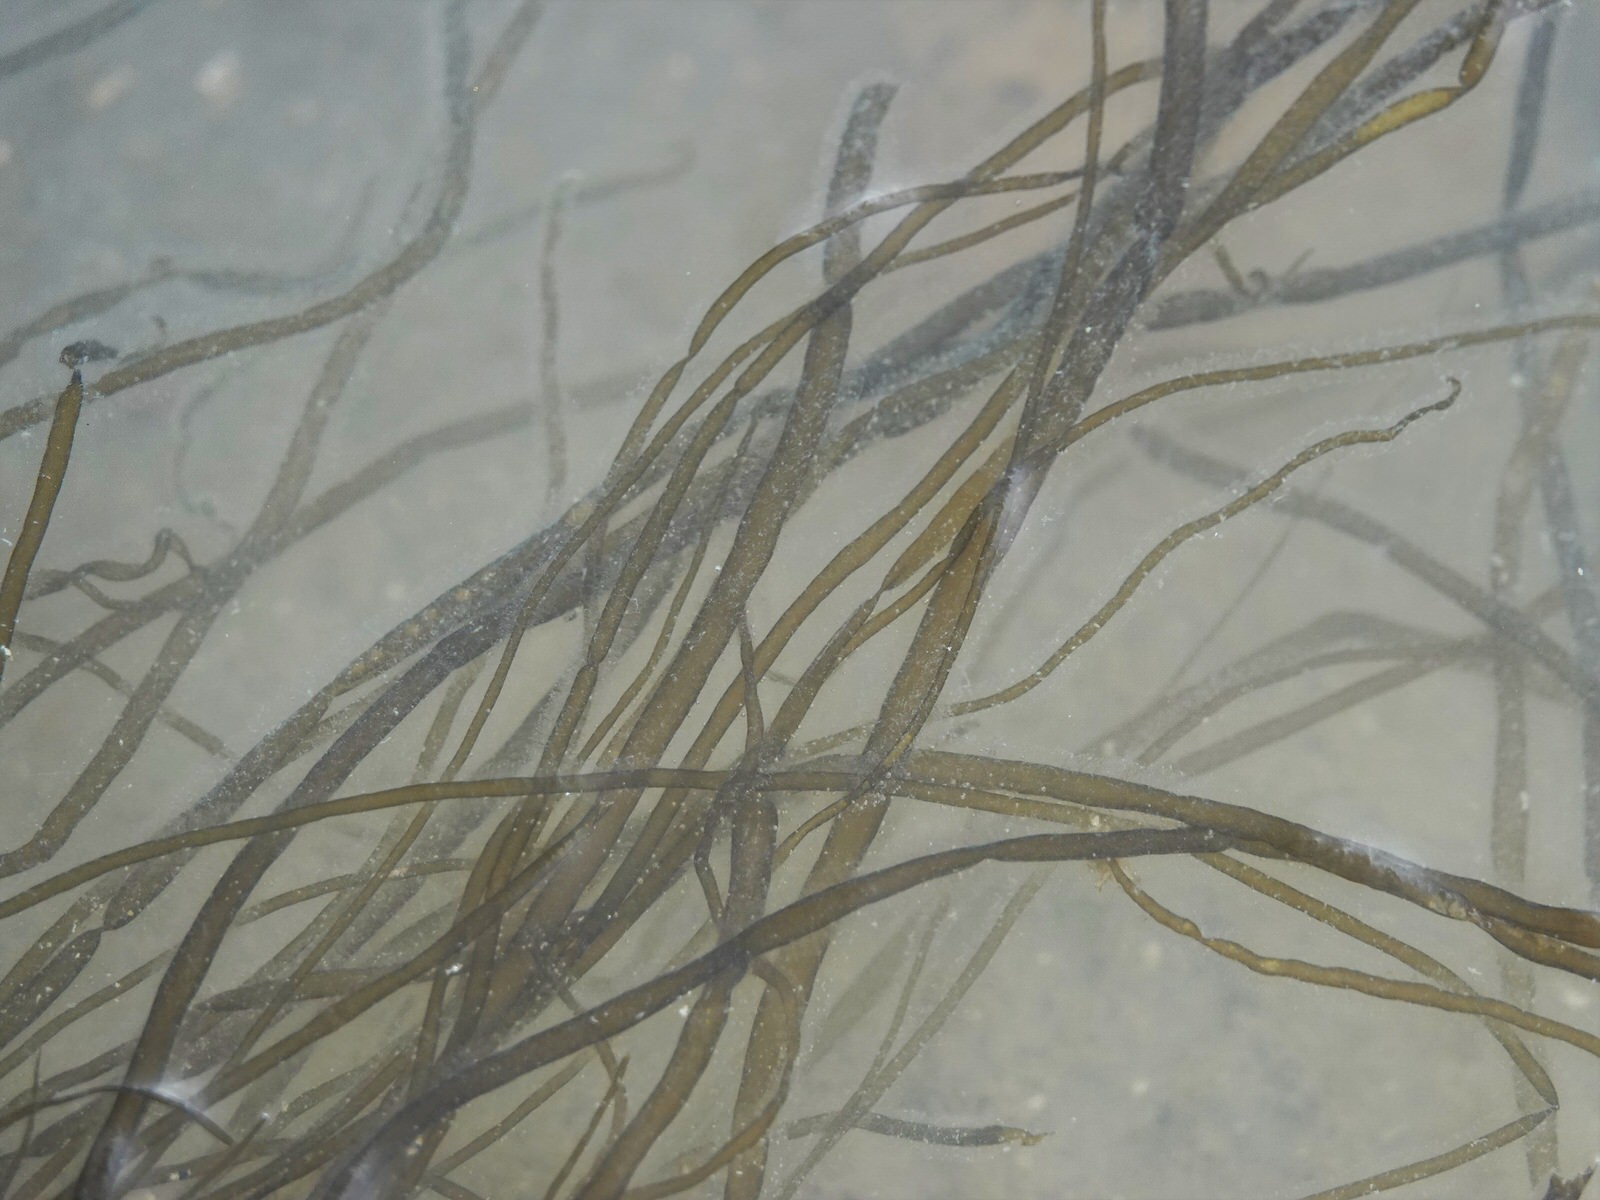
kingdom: Chromista
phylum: Ochrophyta
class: Phaeophyceae
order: Scytosiphonales
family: Scytosiphonaceae
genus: Scytosiphon
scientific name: Scytosiphon lomentaria
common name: Beanweed
